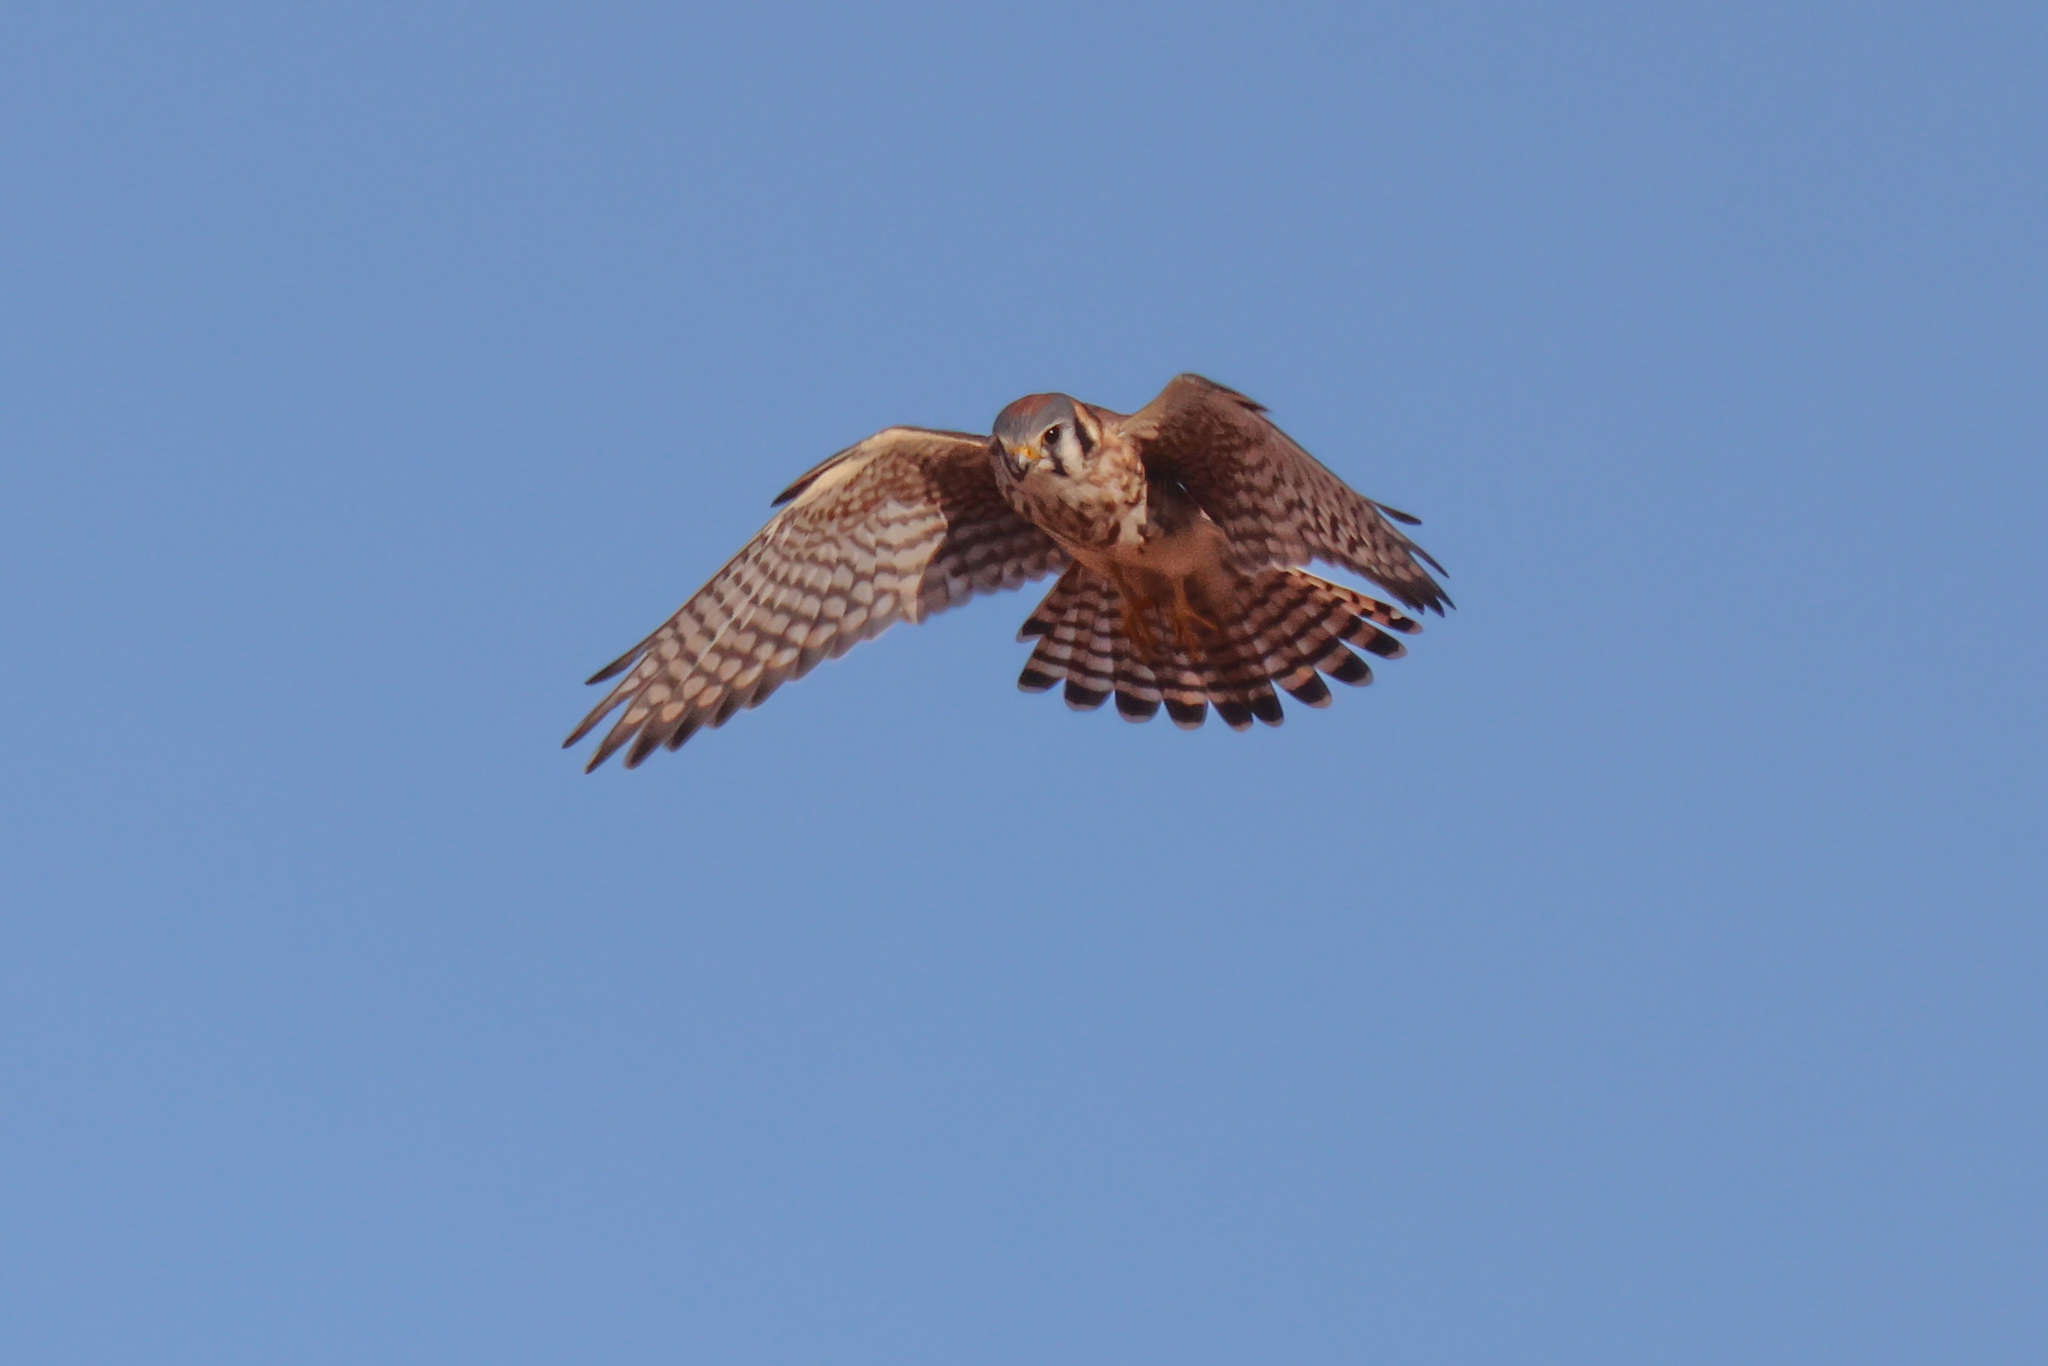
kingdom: Animalia
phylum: Chordata
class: Aves
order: Falconiformes
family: Falconidae
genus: Falco
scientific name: Falco sparverius
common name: American kestrel
